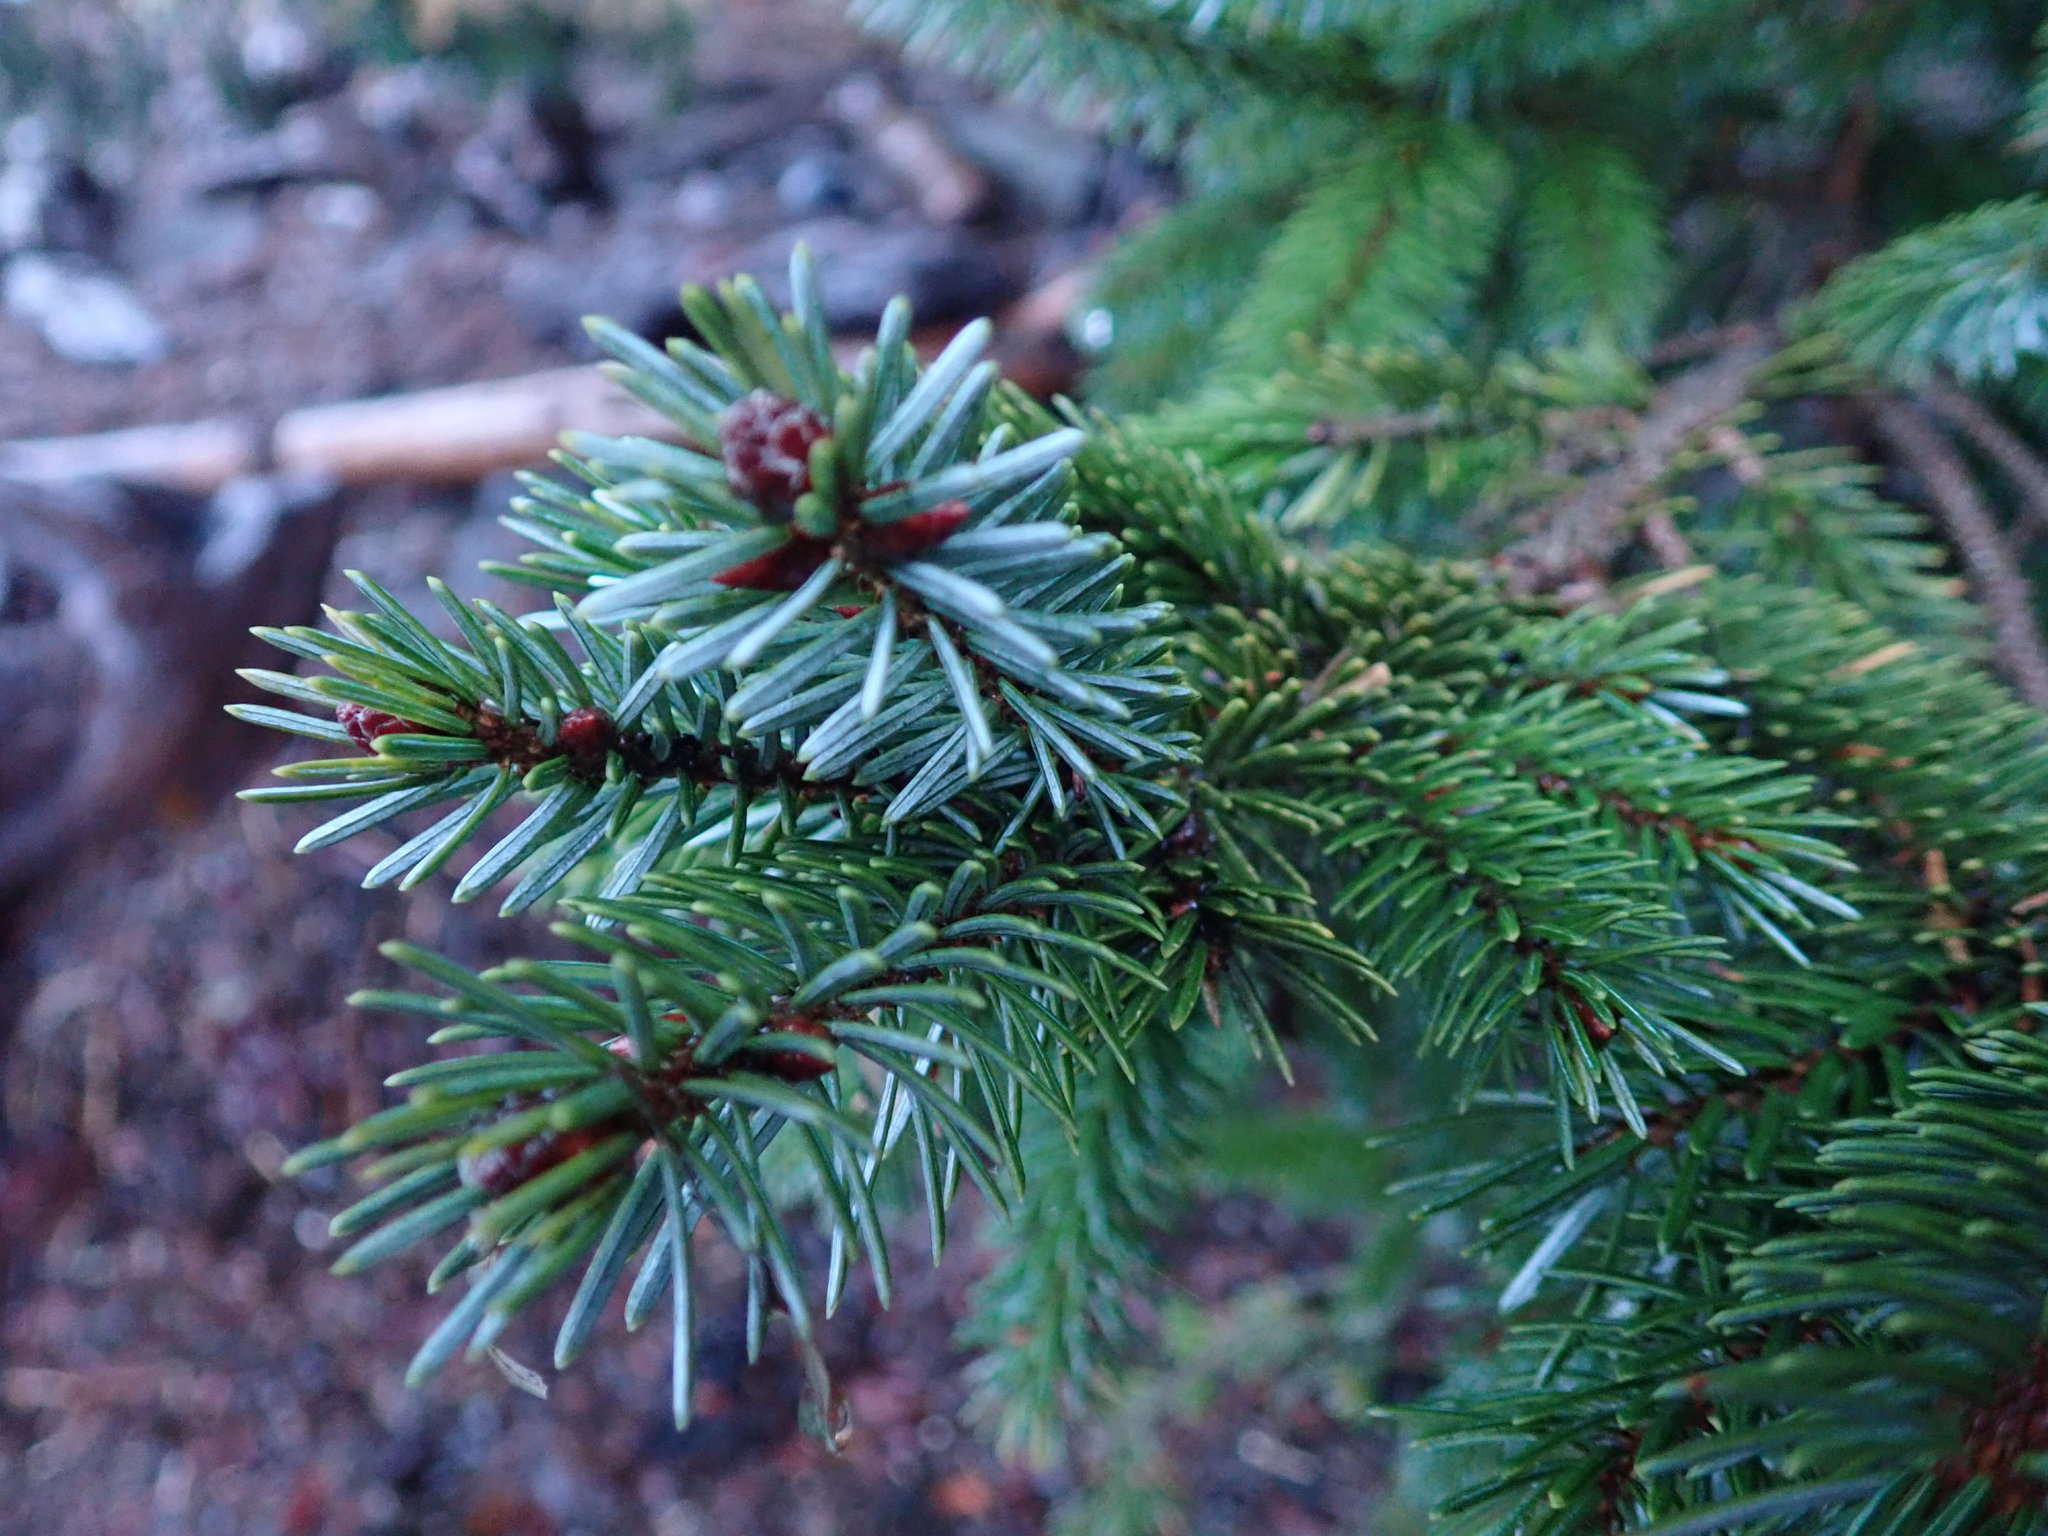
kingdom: Plantae
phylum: Tracheophyta
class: Pinopsida
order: Pinales
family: Pinaceae
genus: Picea
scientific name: Picea sitchensis
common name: Sitka spruce
